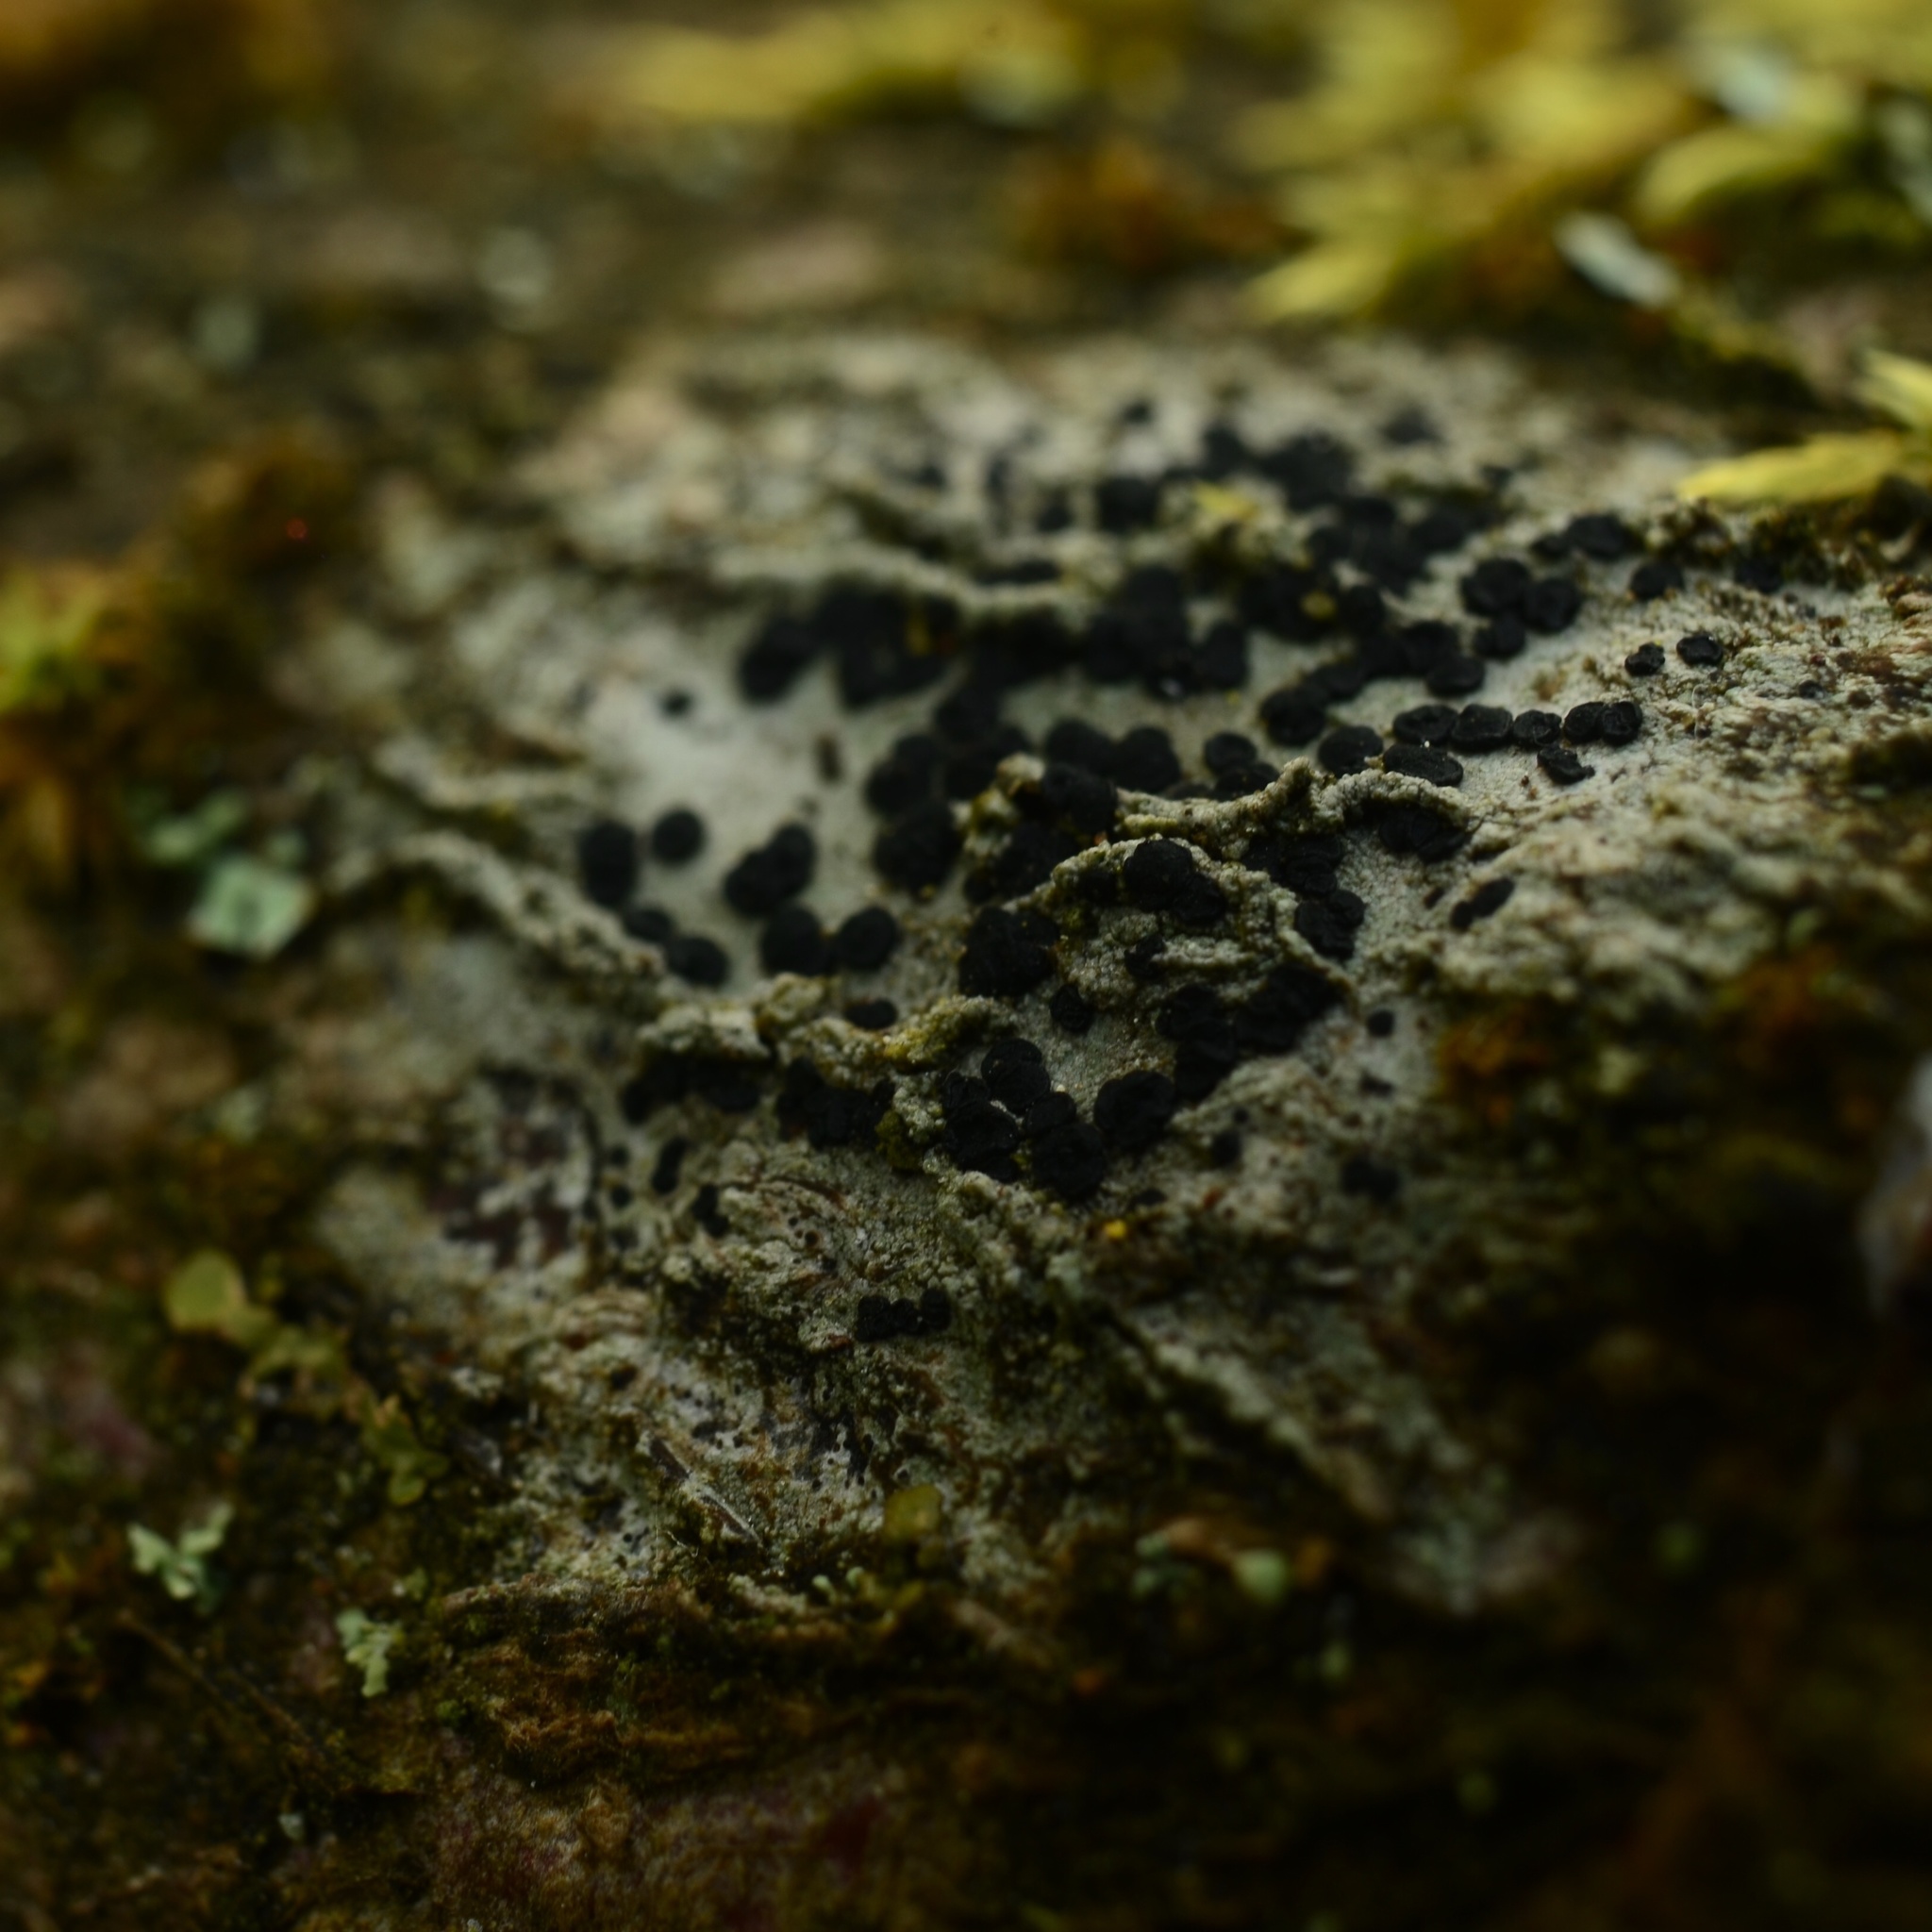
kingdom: Fungi
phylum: Ascomycota
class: Lecanoromycetes
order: Lecanorales
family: Lecanoraceae
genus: Lecidella
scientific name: Lecidella elaeochroma
